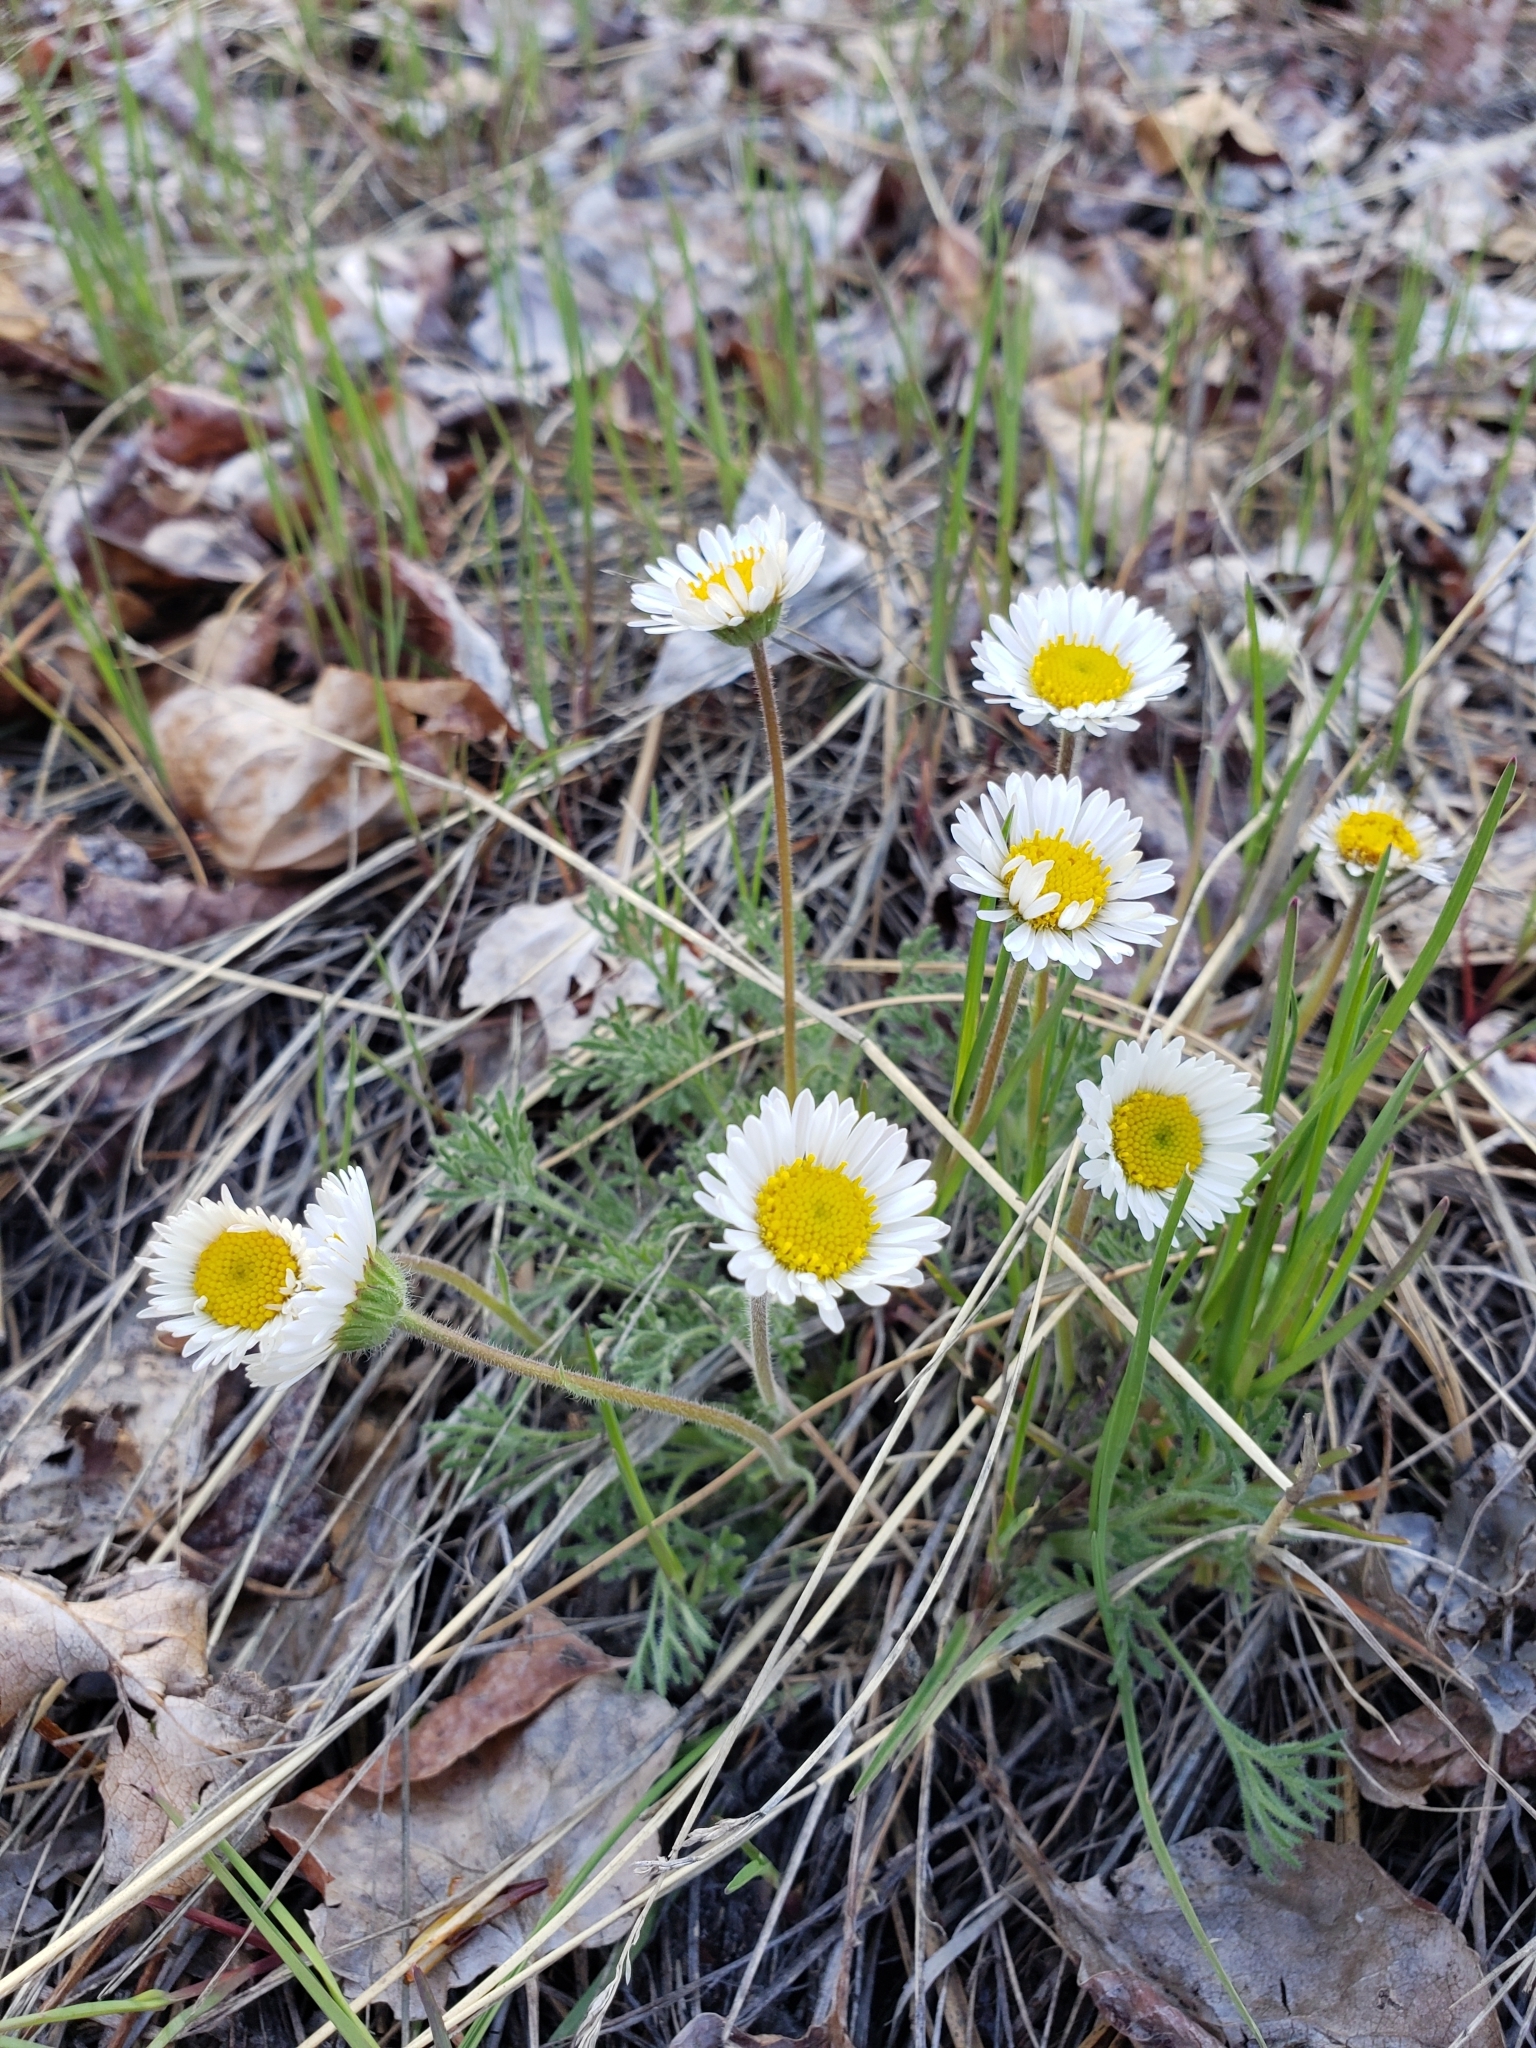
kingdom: Plantae
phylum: Tracheophyta
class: Magnoliopsida
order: Asterales
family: Asteraceae
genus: Erigeron
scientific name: Erigeron compositus
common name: Dwarf mountain fleabane
